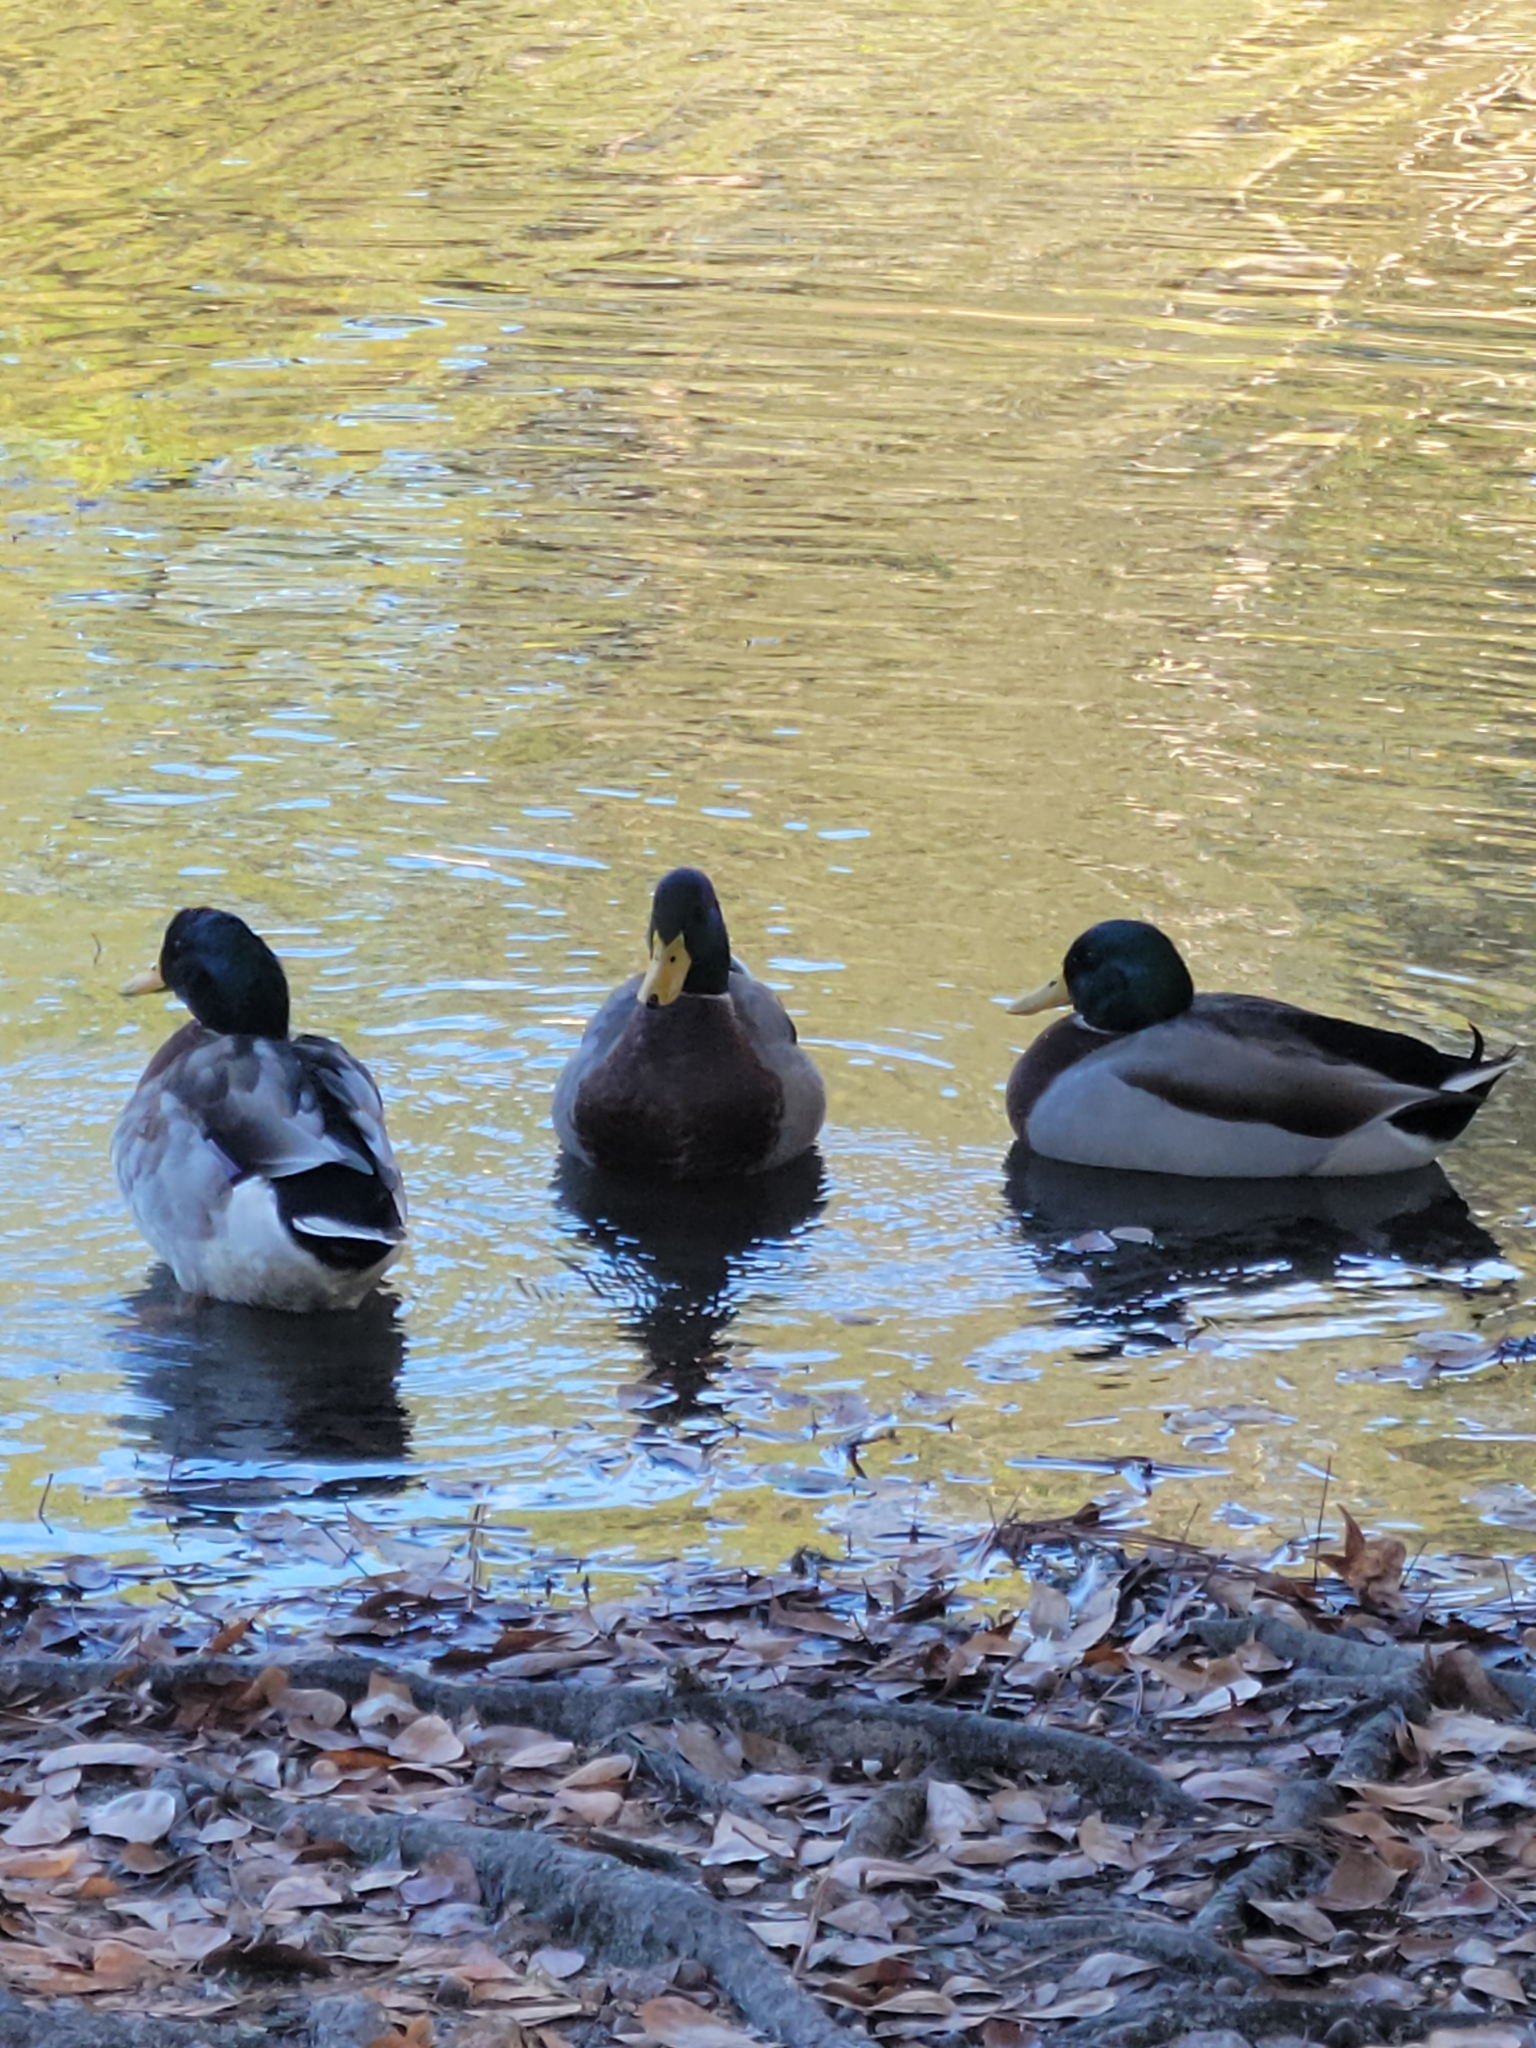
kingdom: Animalia
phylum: Chordata
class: Aves
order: Anseriformes
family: Anatidae
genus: Anas
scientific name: Anas platyrhynchos
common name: Mallard
